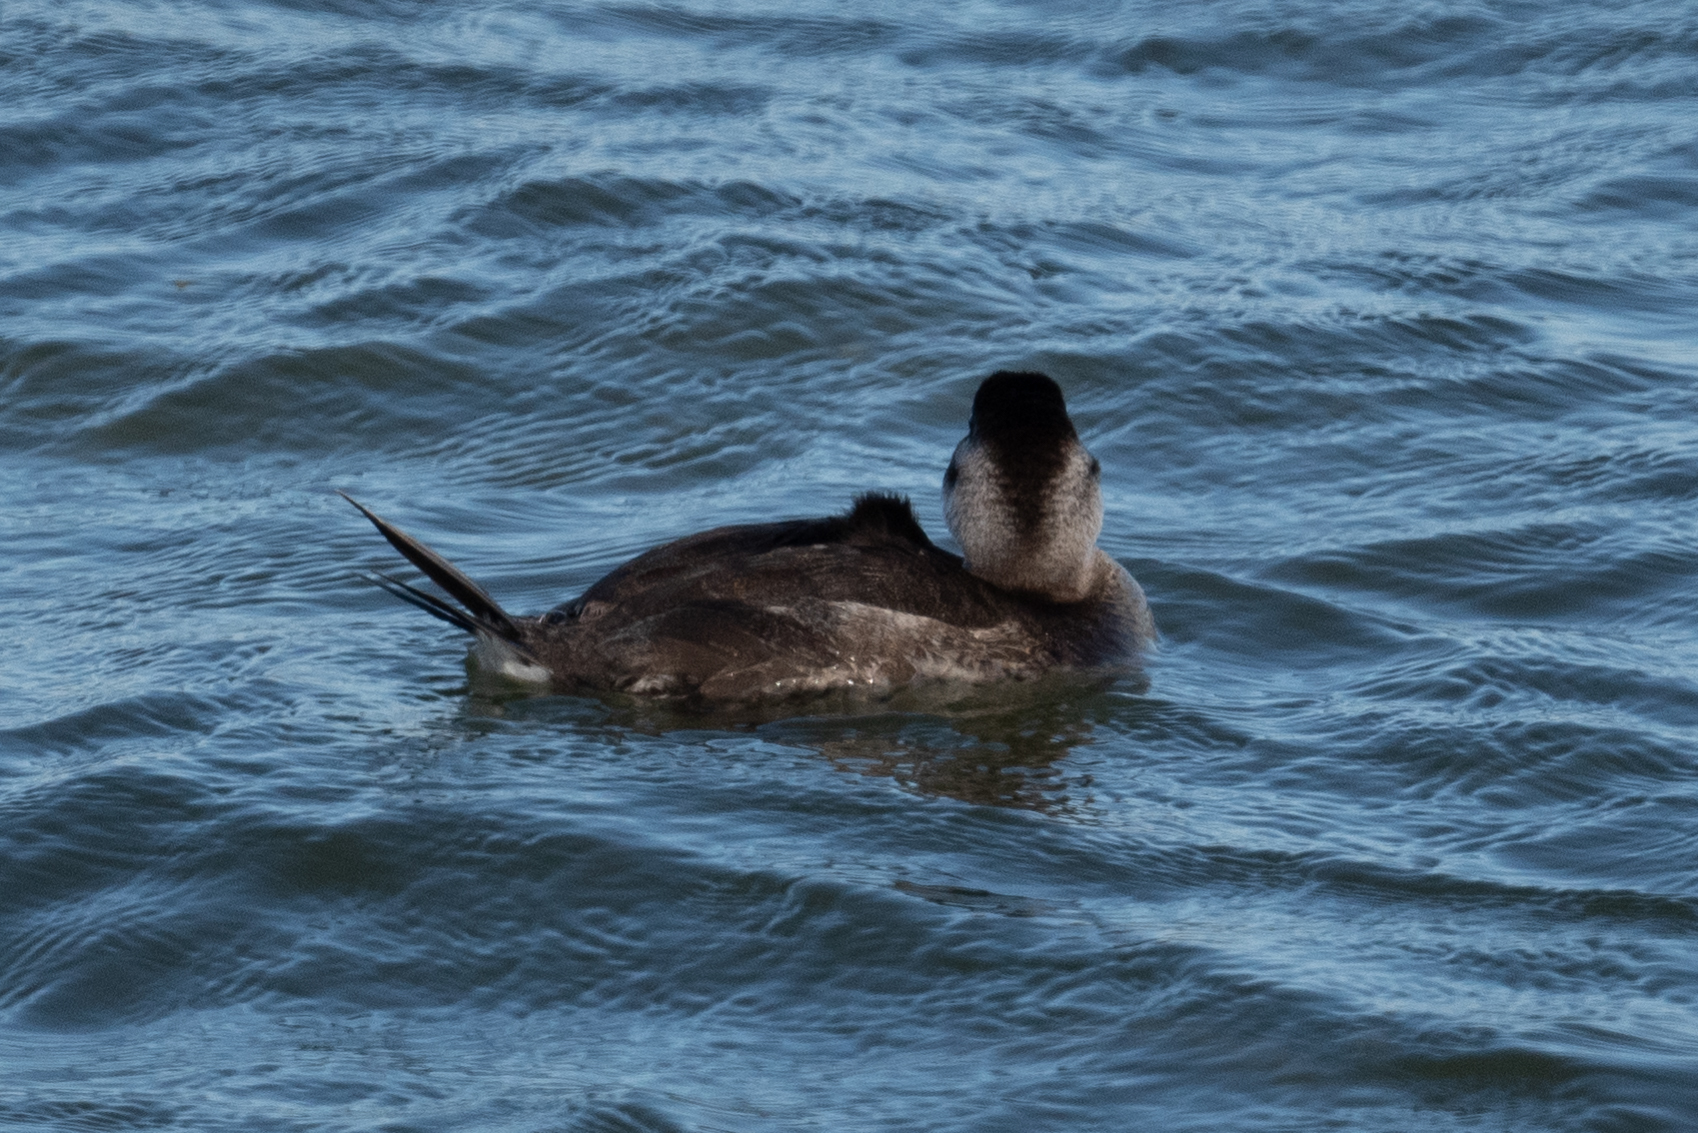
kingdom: Animalia
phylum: Chordata
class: Aves
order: Anseriformes
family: Anatidae
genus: Oxyura
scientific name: Oxyura jamaicensis
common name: Ruddy duck
